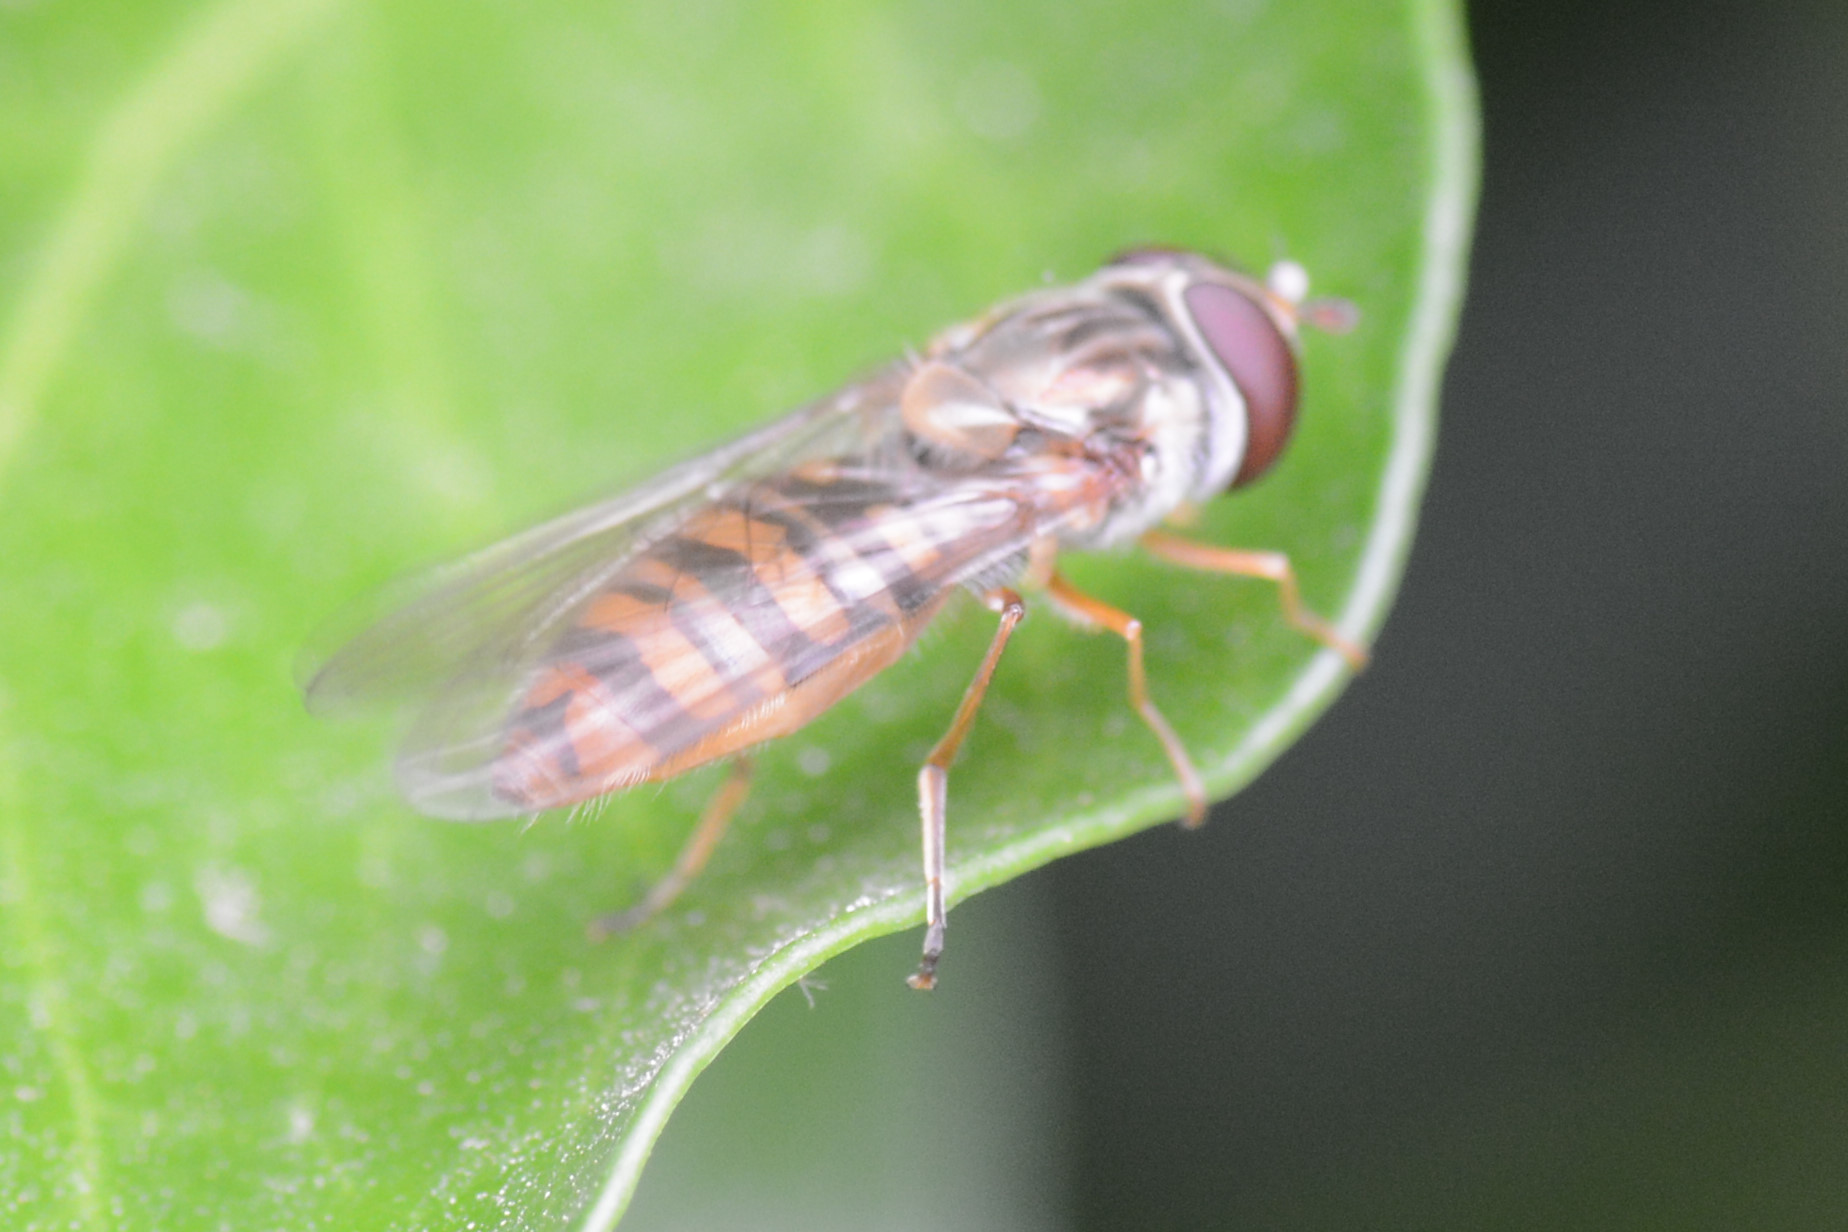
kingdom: Animalia
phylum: Arthropoda
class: Insecta
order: Diptera
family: Syrphidae
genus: Episyrphus
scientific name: Episyrphus balteatus
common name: Marmalade hoverfly
